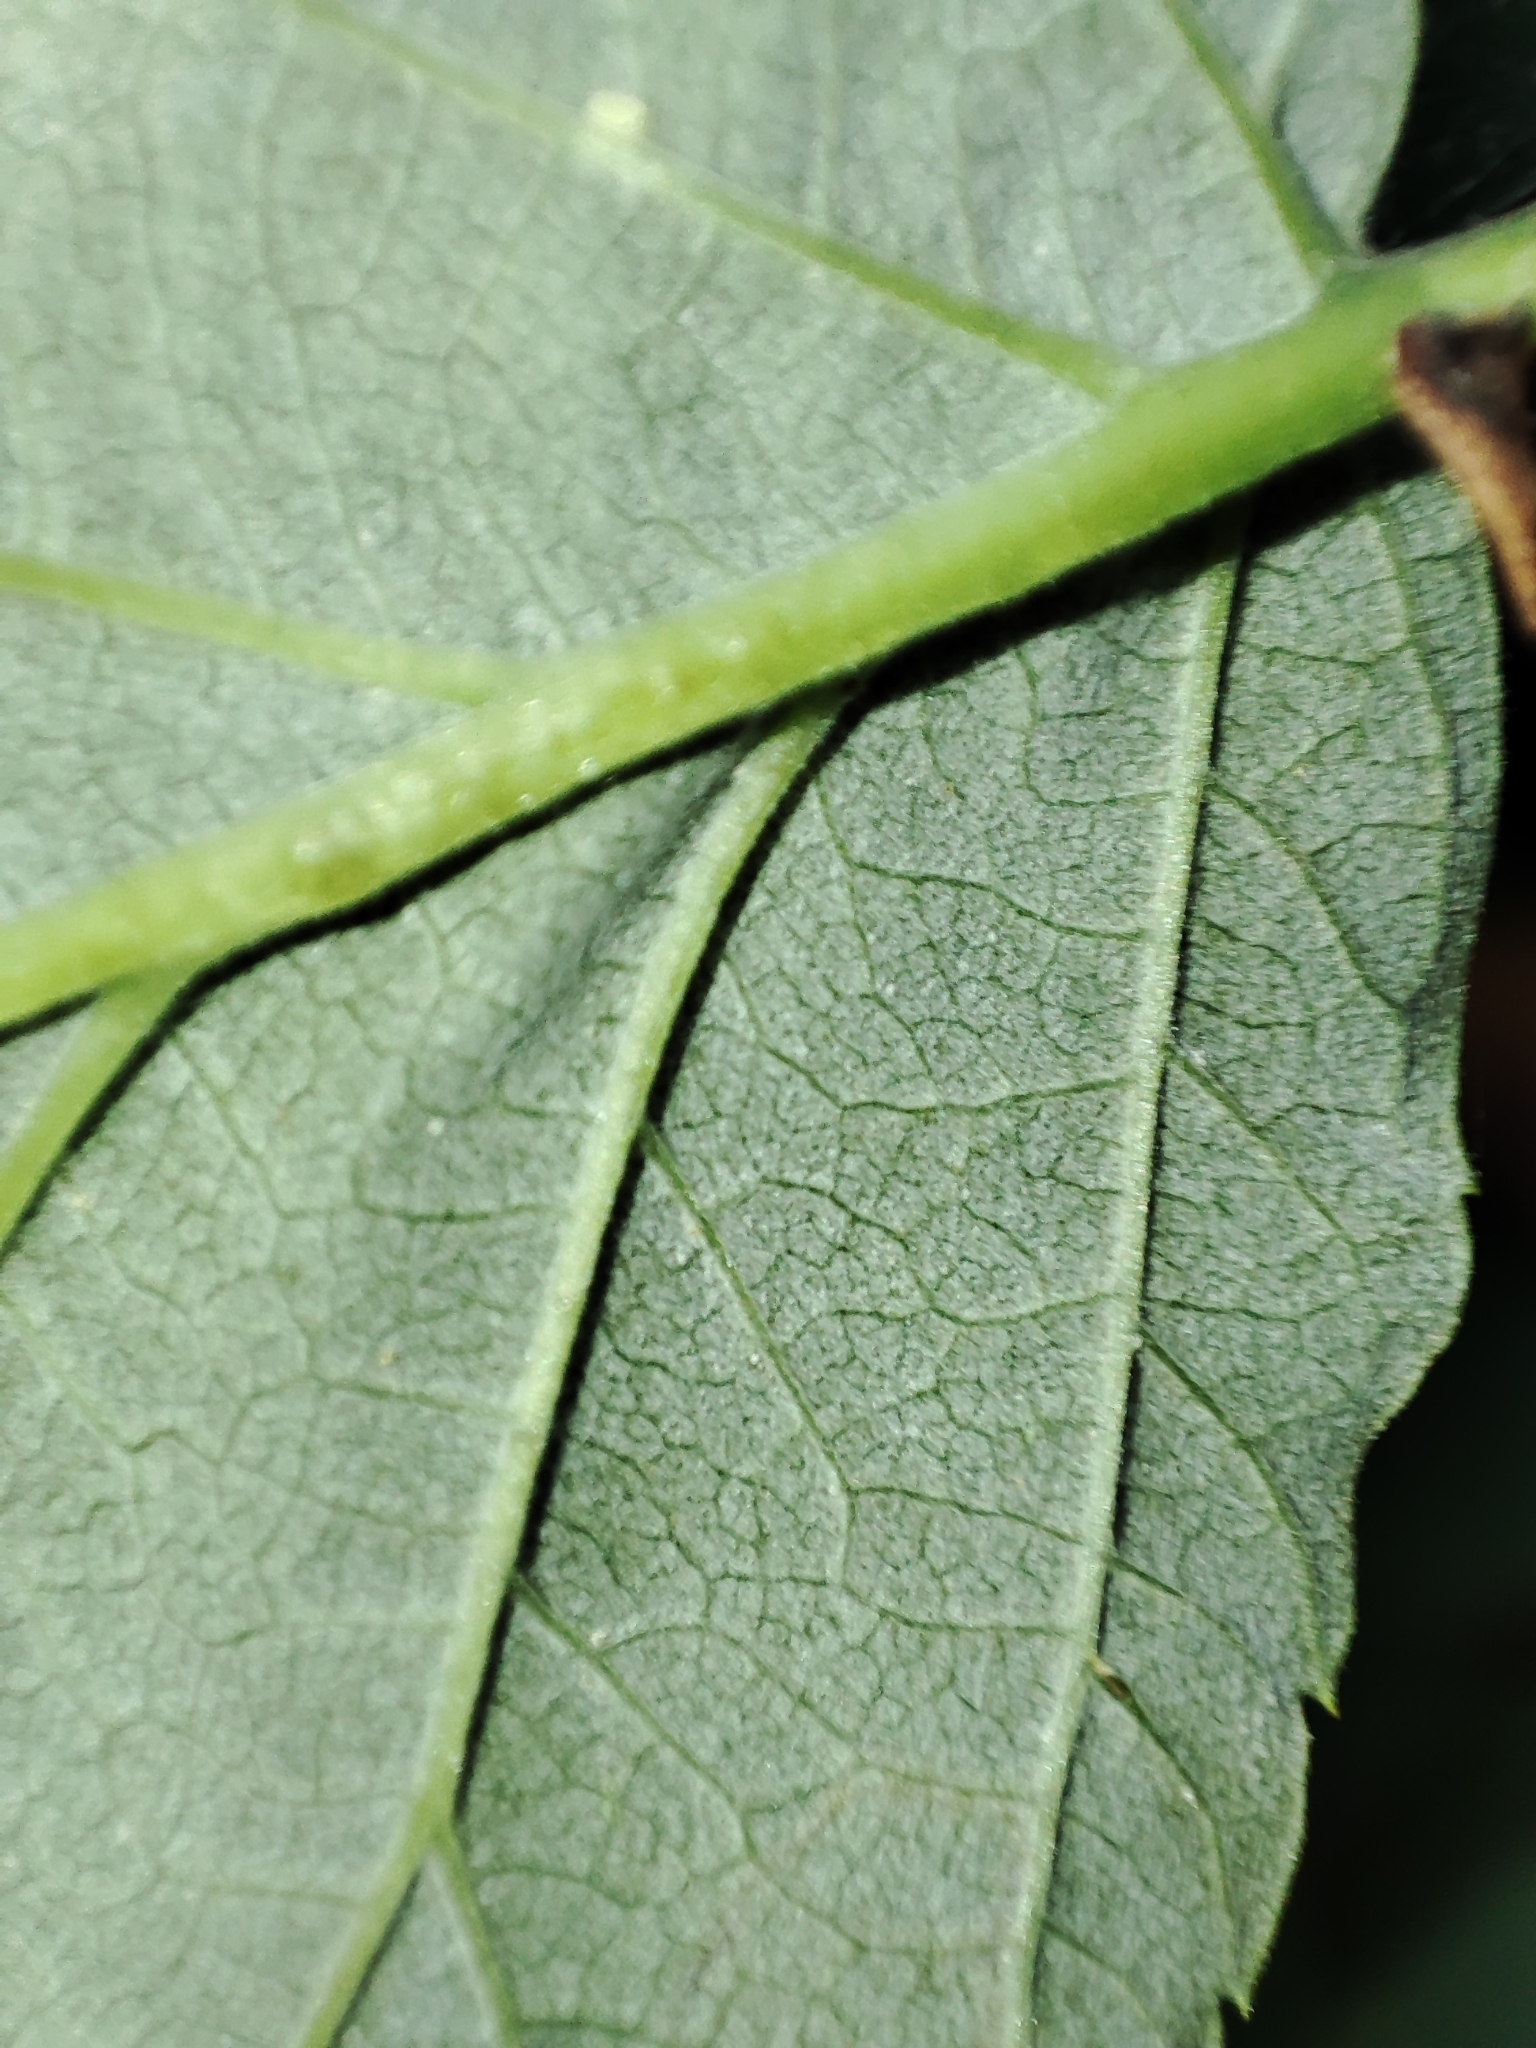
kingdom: Plantae
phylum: Tracheophyta
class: Magnoliopsida
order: Rosales
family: Rosaceae
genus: Rubus
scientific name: Rubus idaeus
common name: Raspberry
